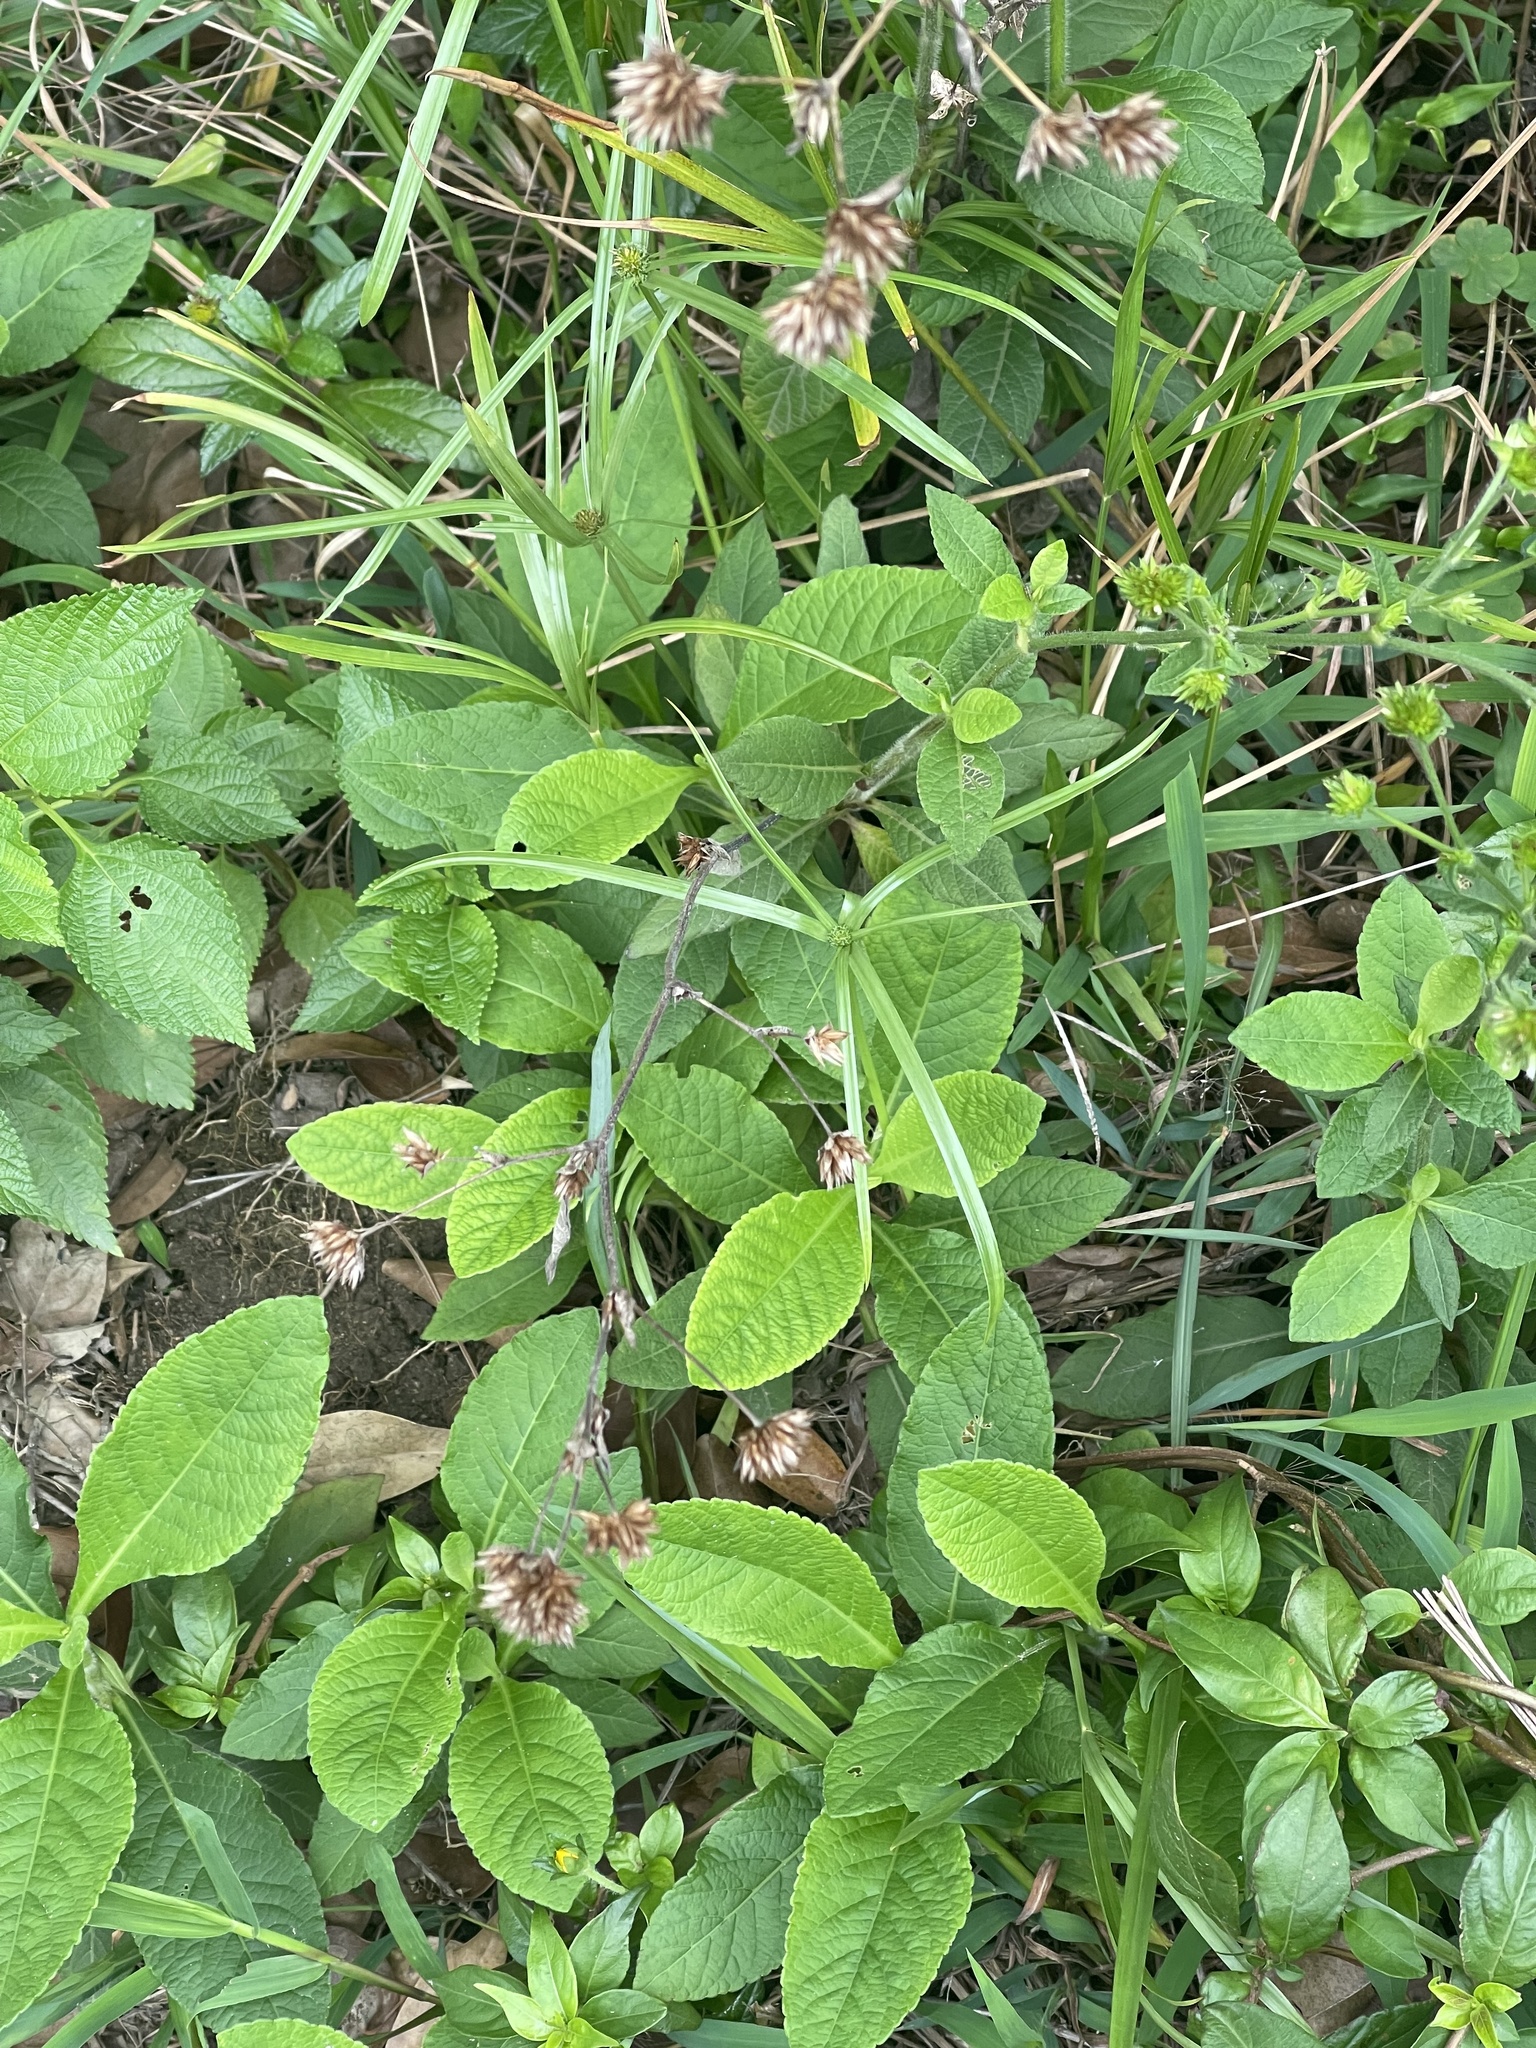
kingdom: Plantae
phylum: Tracheophyta
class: Magnoliopsida
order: Asterales
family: Asteraceae
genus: Elephantopus
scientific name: Elephantopus tomentosus
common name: Tobacco-weed
